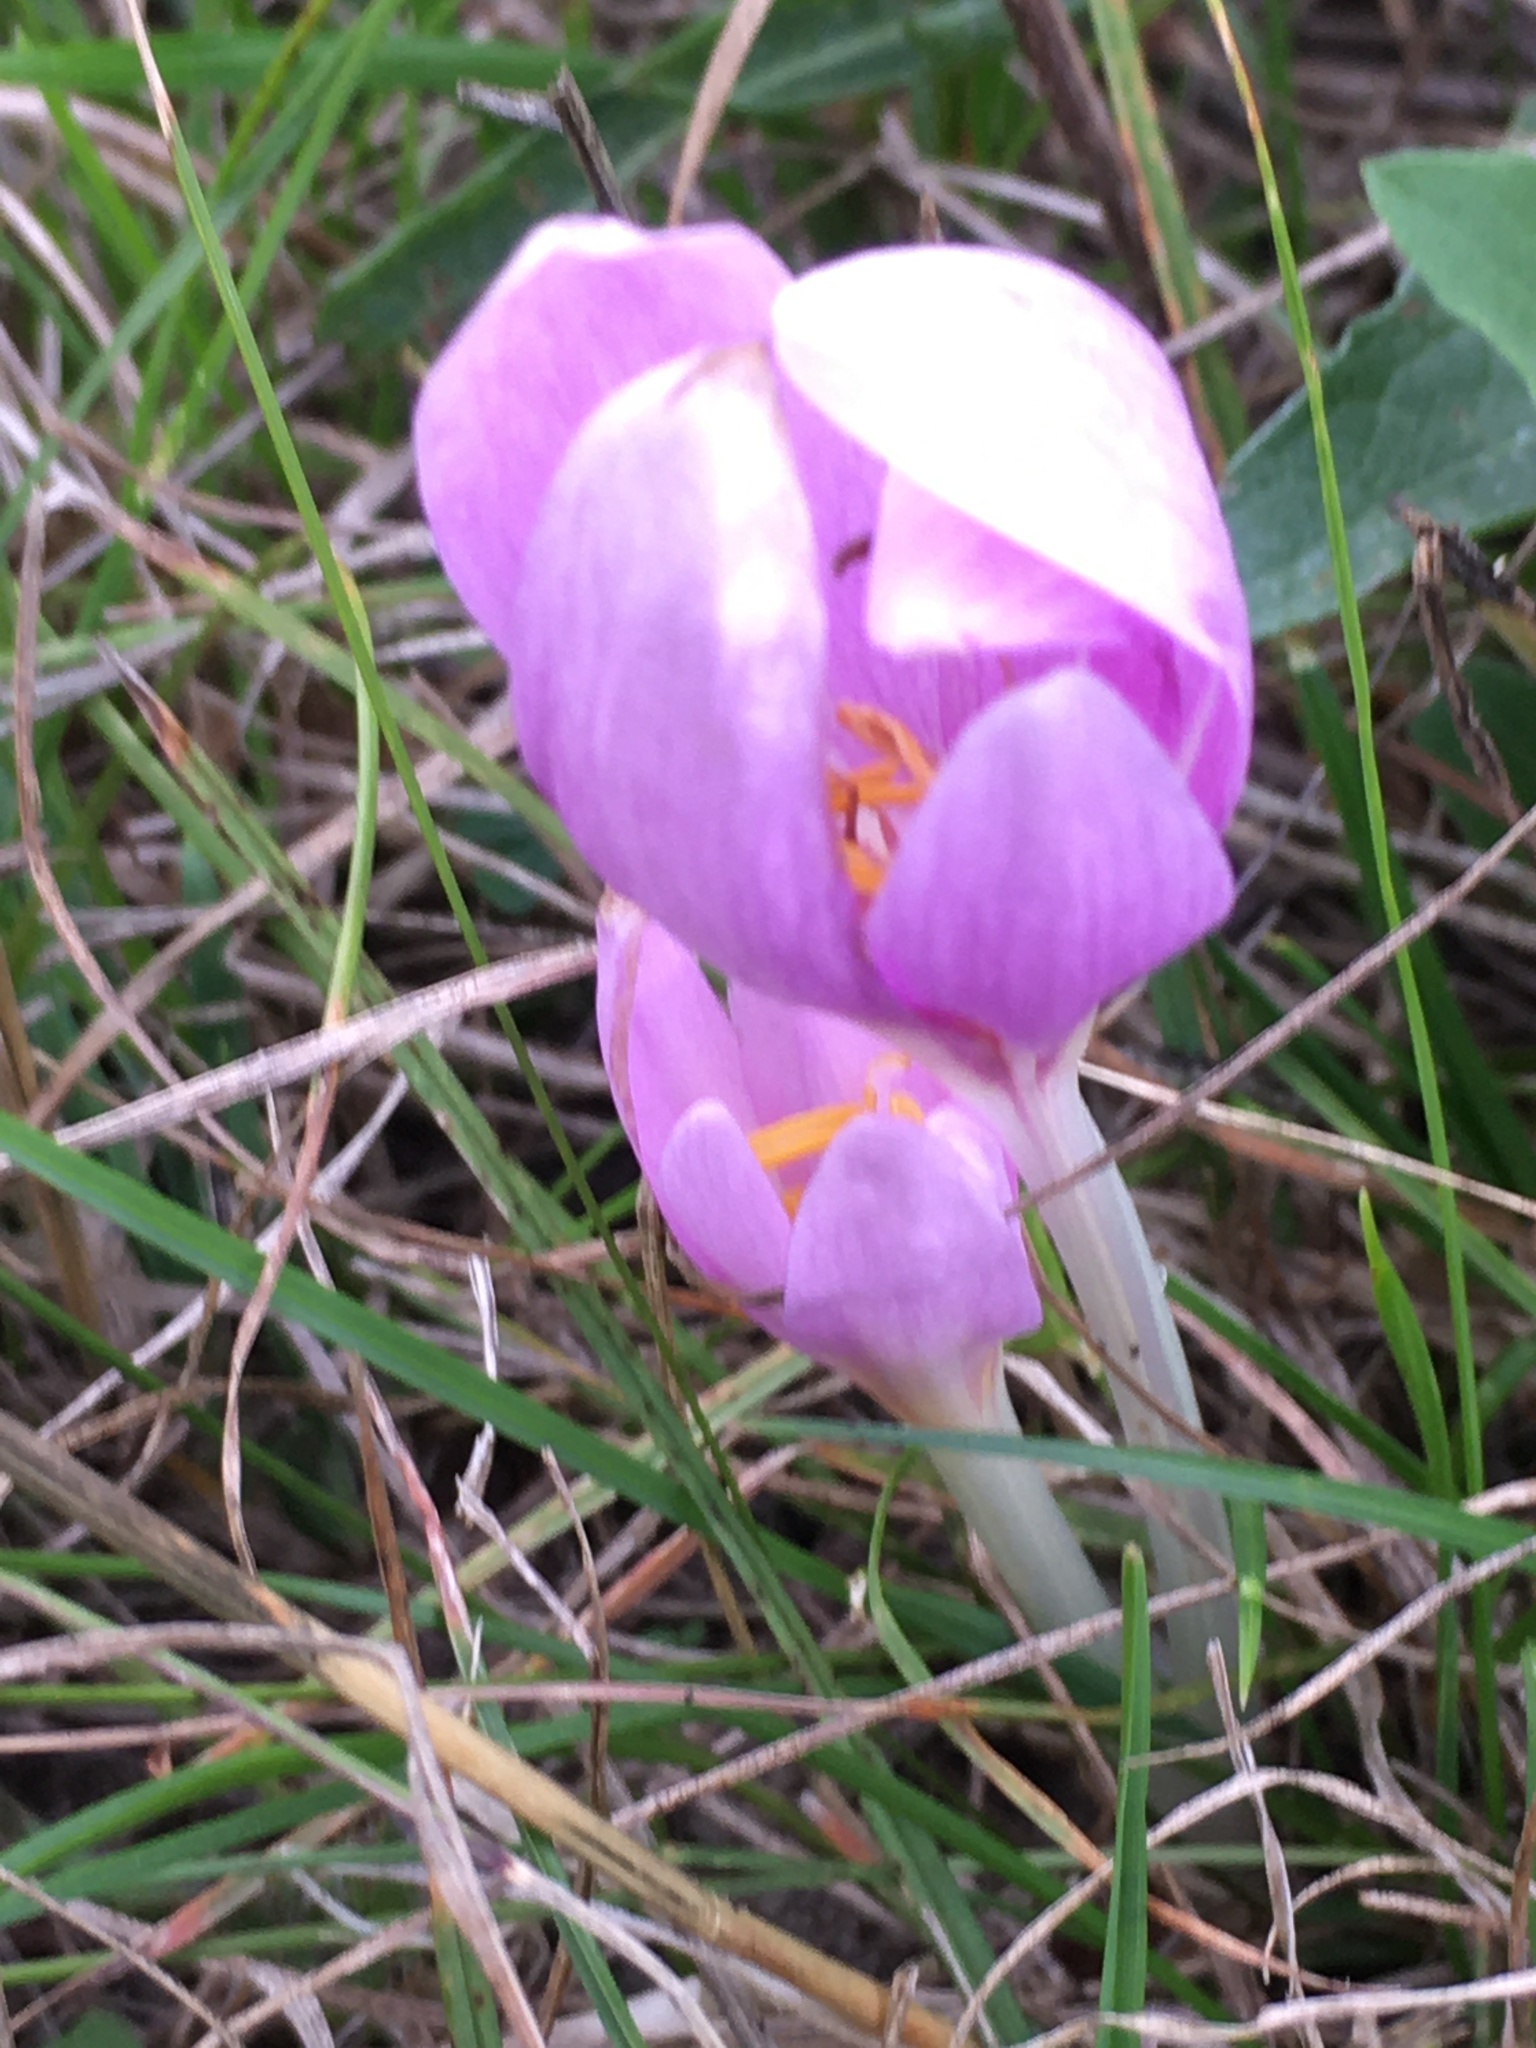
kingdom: Plantae
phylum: Tracheophyta
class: Liliopsida
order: Liliales
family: Colchicaceae
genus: Colchicum
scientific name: Colchicum autumnale
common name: Autumn crocus
